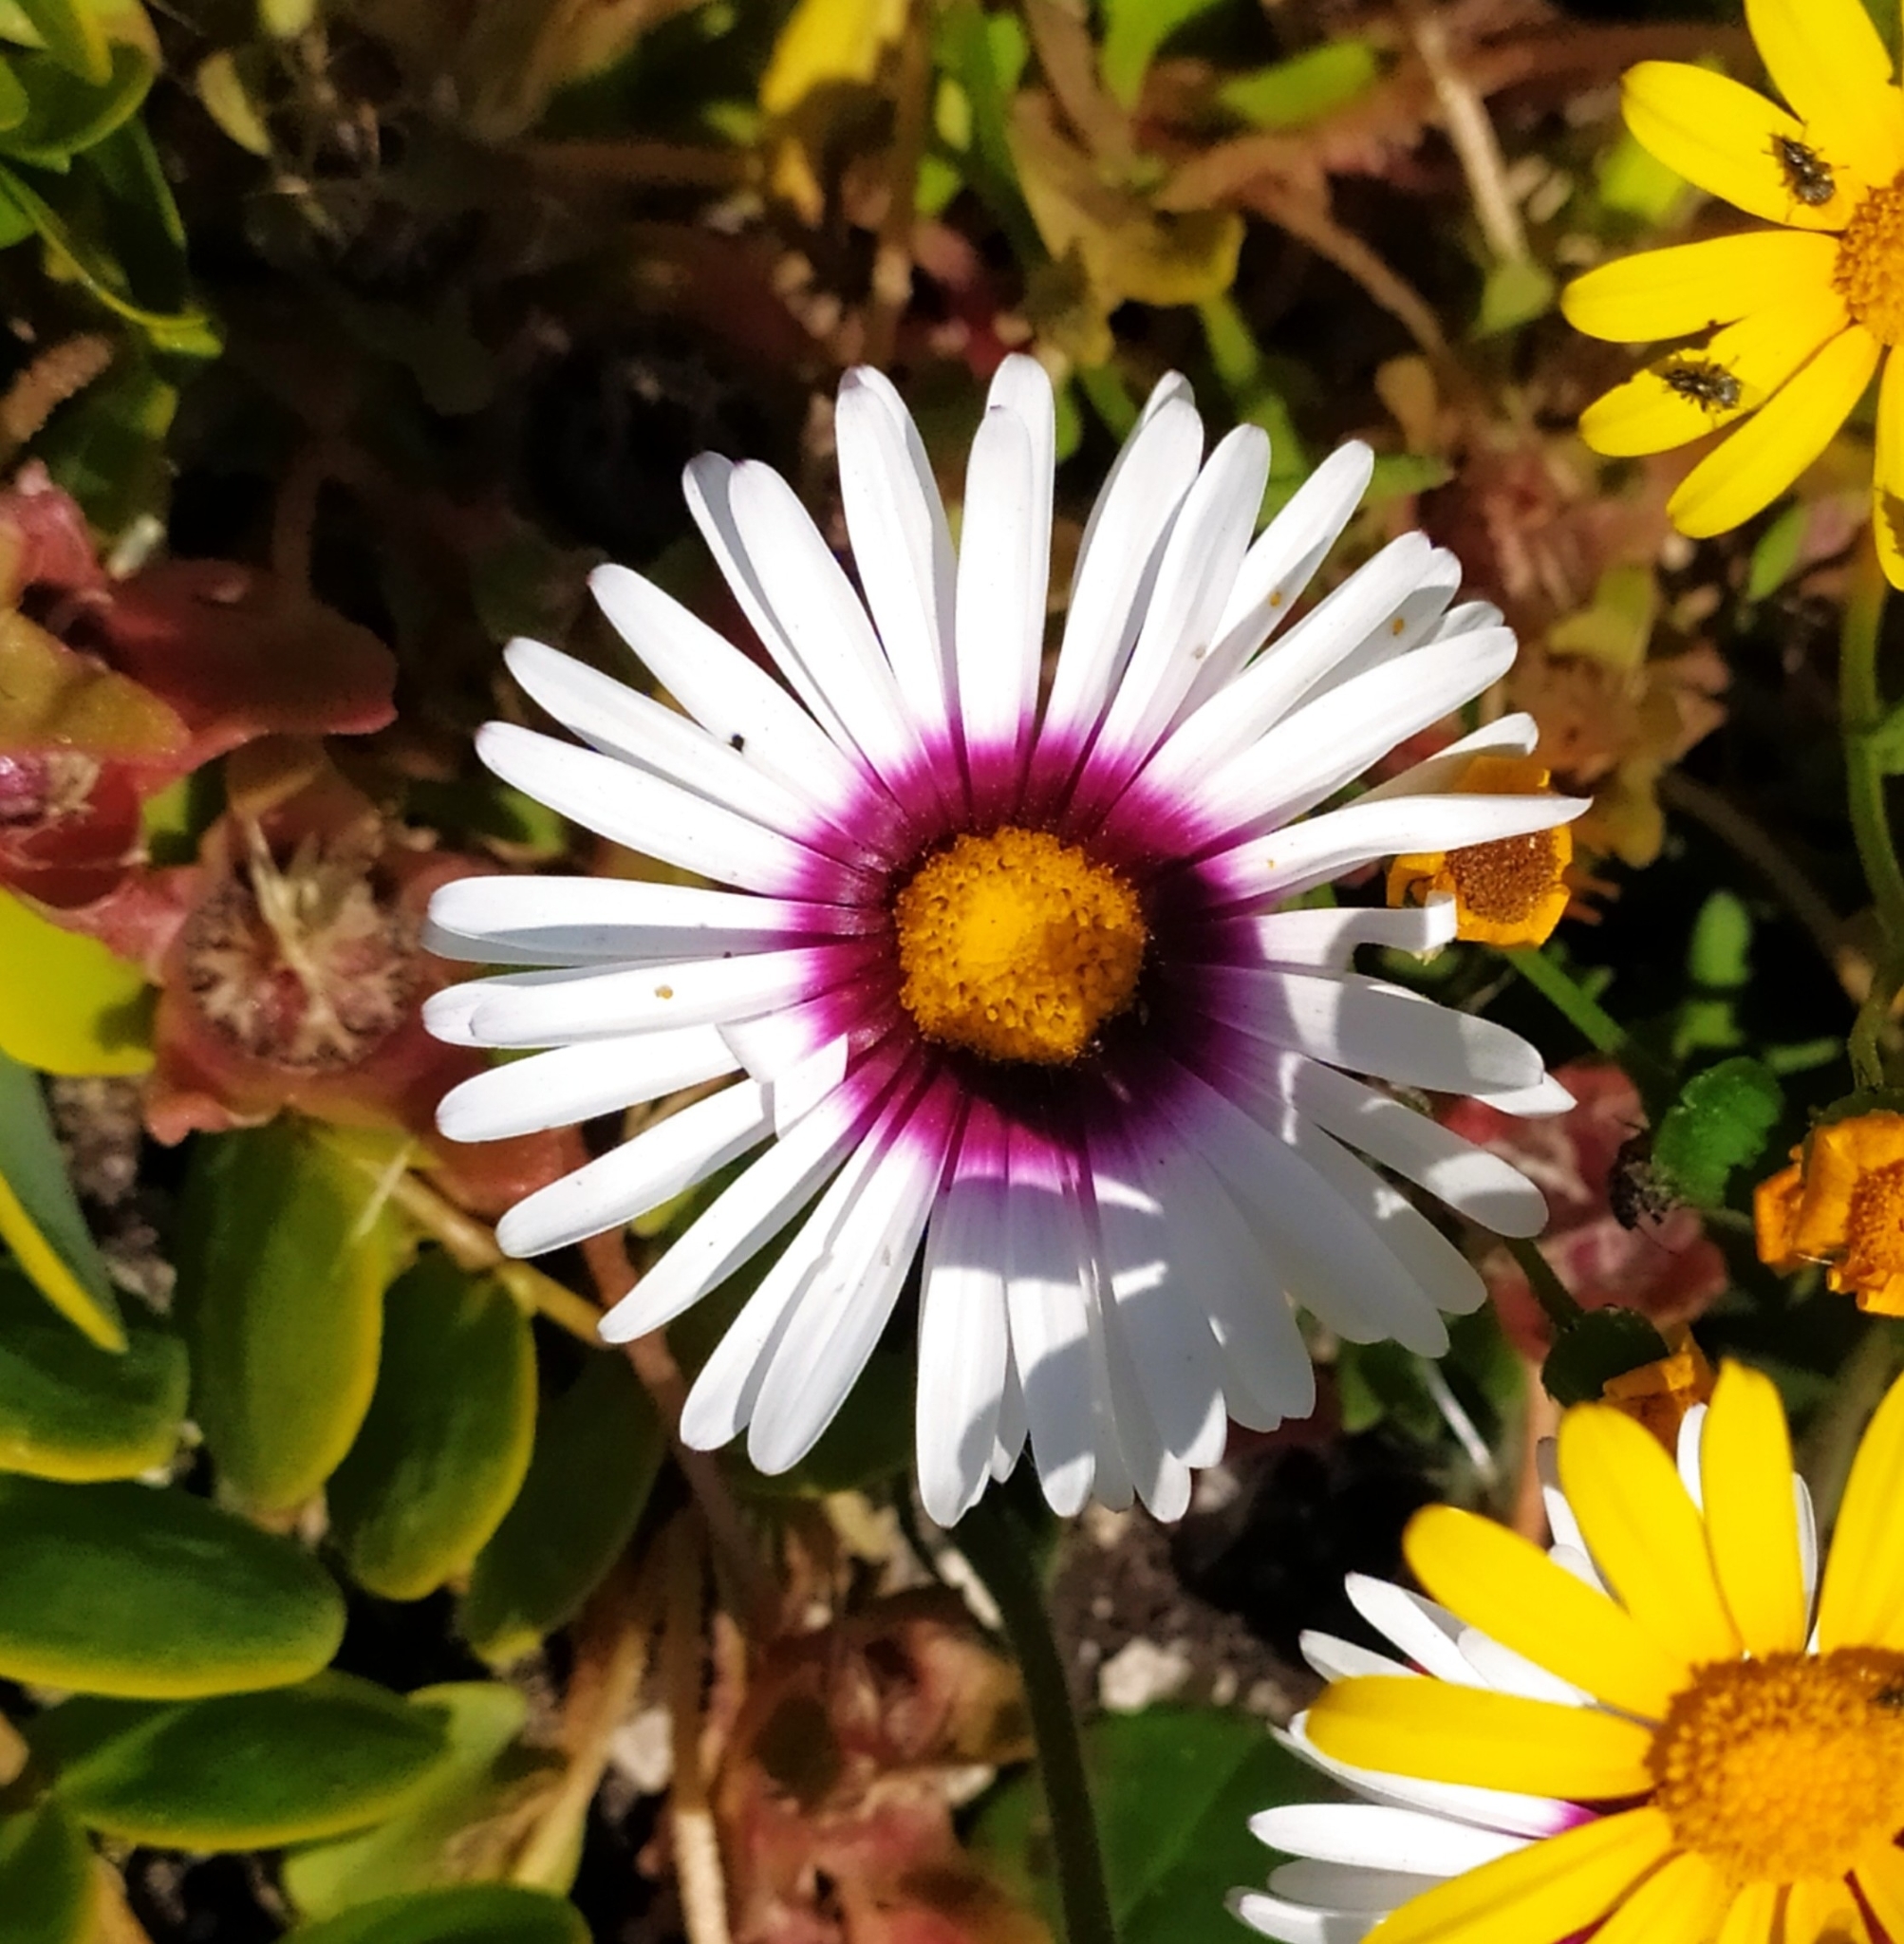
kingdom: Plantae
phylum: Tracheophyta
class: Magnoliopsida
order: Asterales
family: Asteraceae
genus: Felicia
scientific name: Felicia elongata
